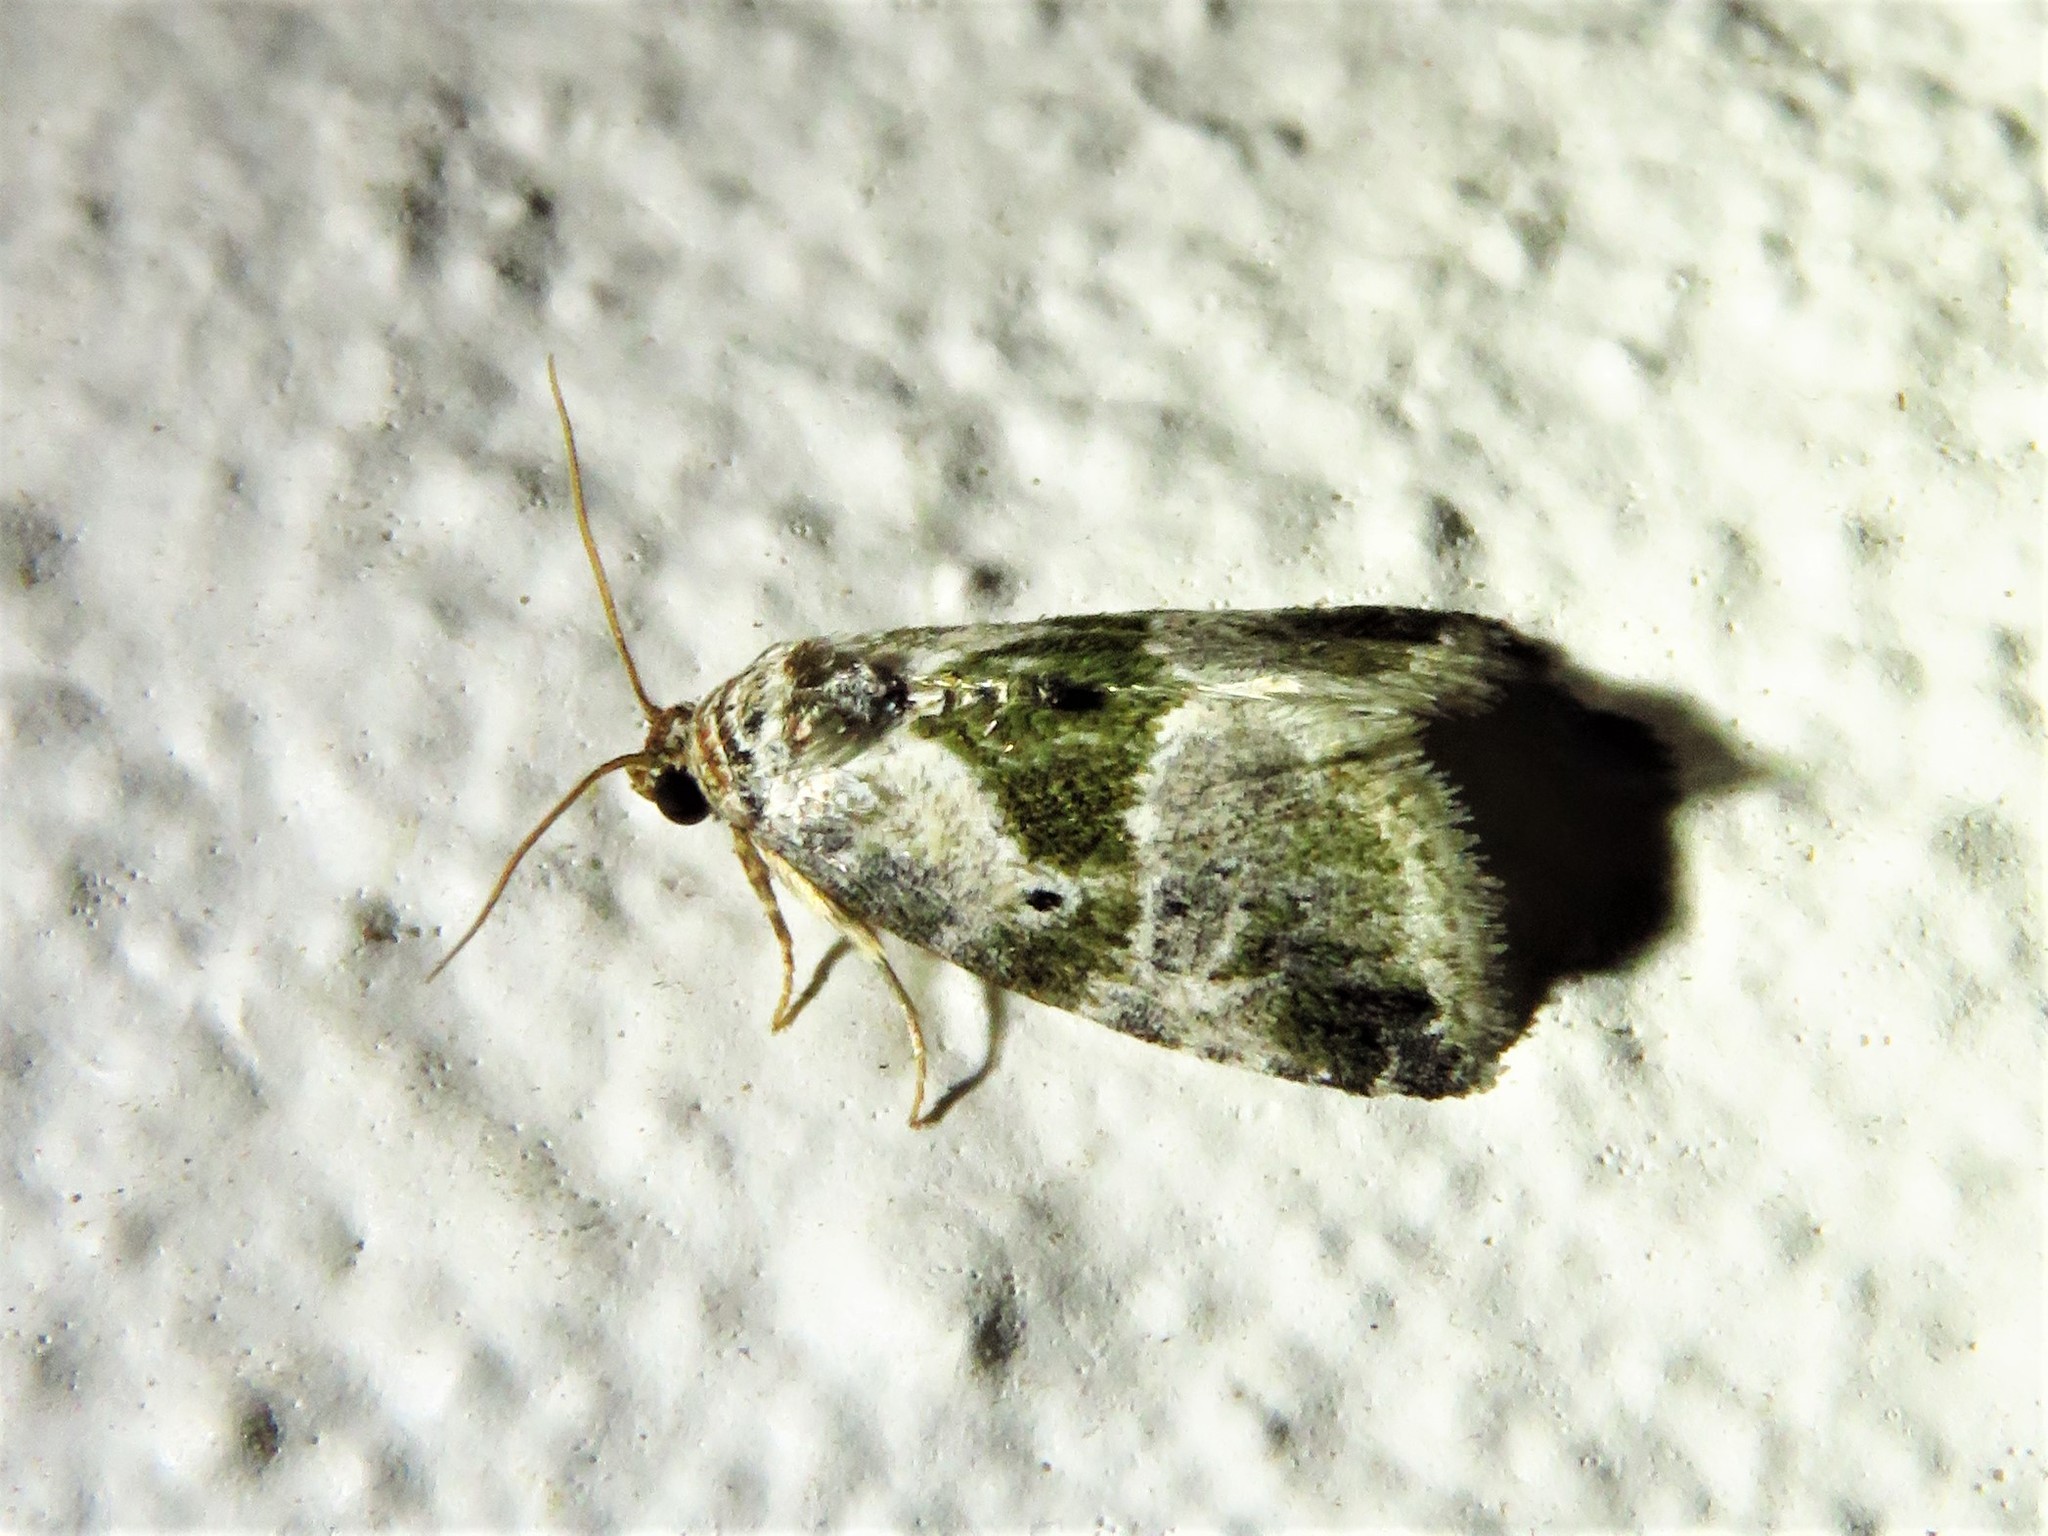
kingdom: Animalia
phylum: Arthropoda
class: Insecta
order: Lepidoptera
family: Noctuidae
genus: Maliattha
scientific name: Maliattha synochitis
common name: Black-dotted glyph
